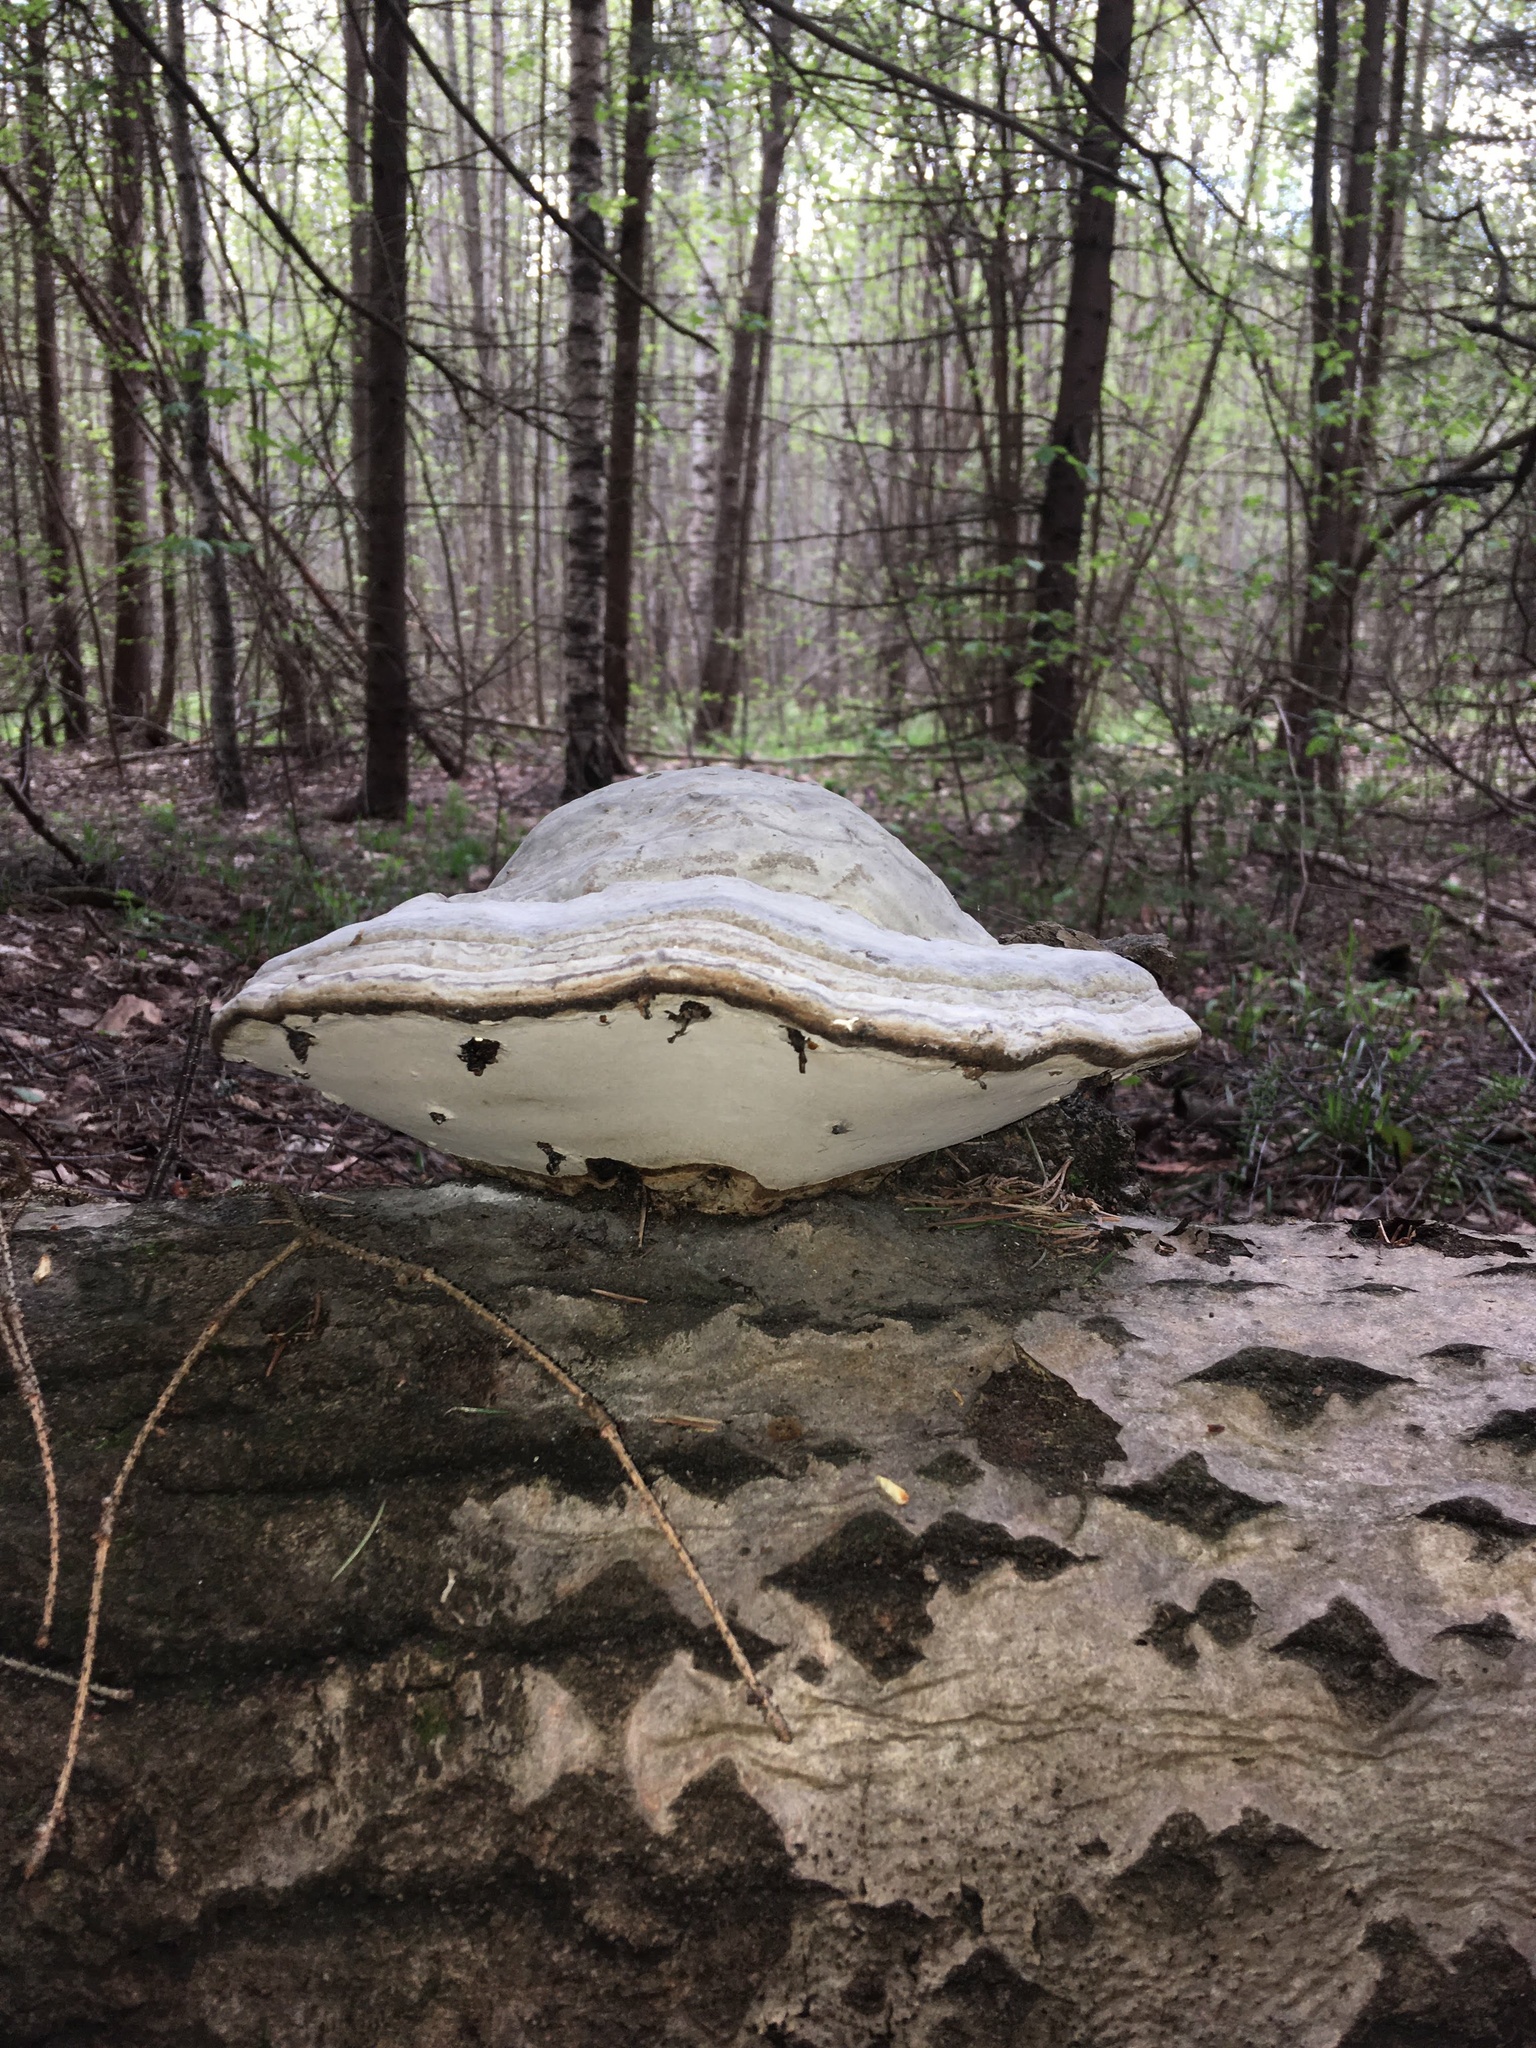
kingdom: Fungi
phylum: Basidiomycota
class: Agaricomycetes
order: Polyporales
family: Polyporaceae
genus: Fomes
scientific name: Fomes fomentarius
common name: Hoof fungus
